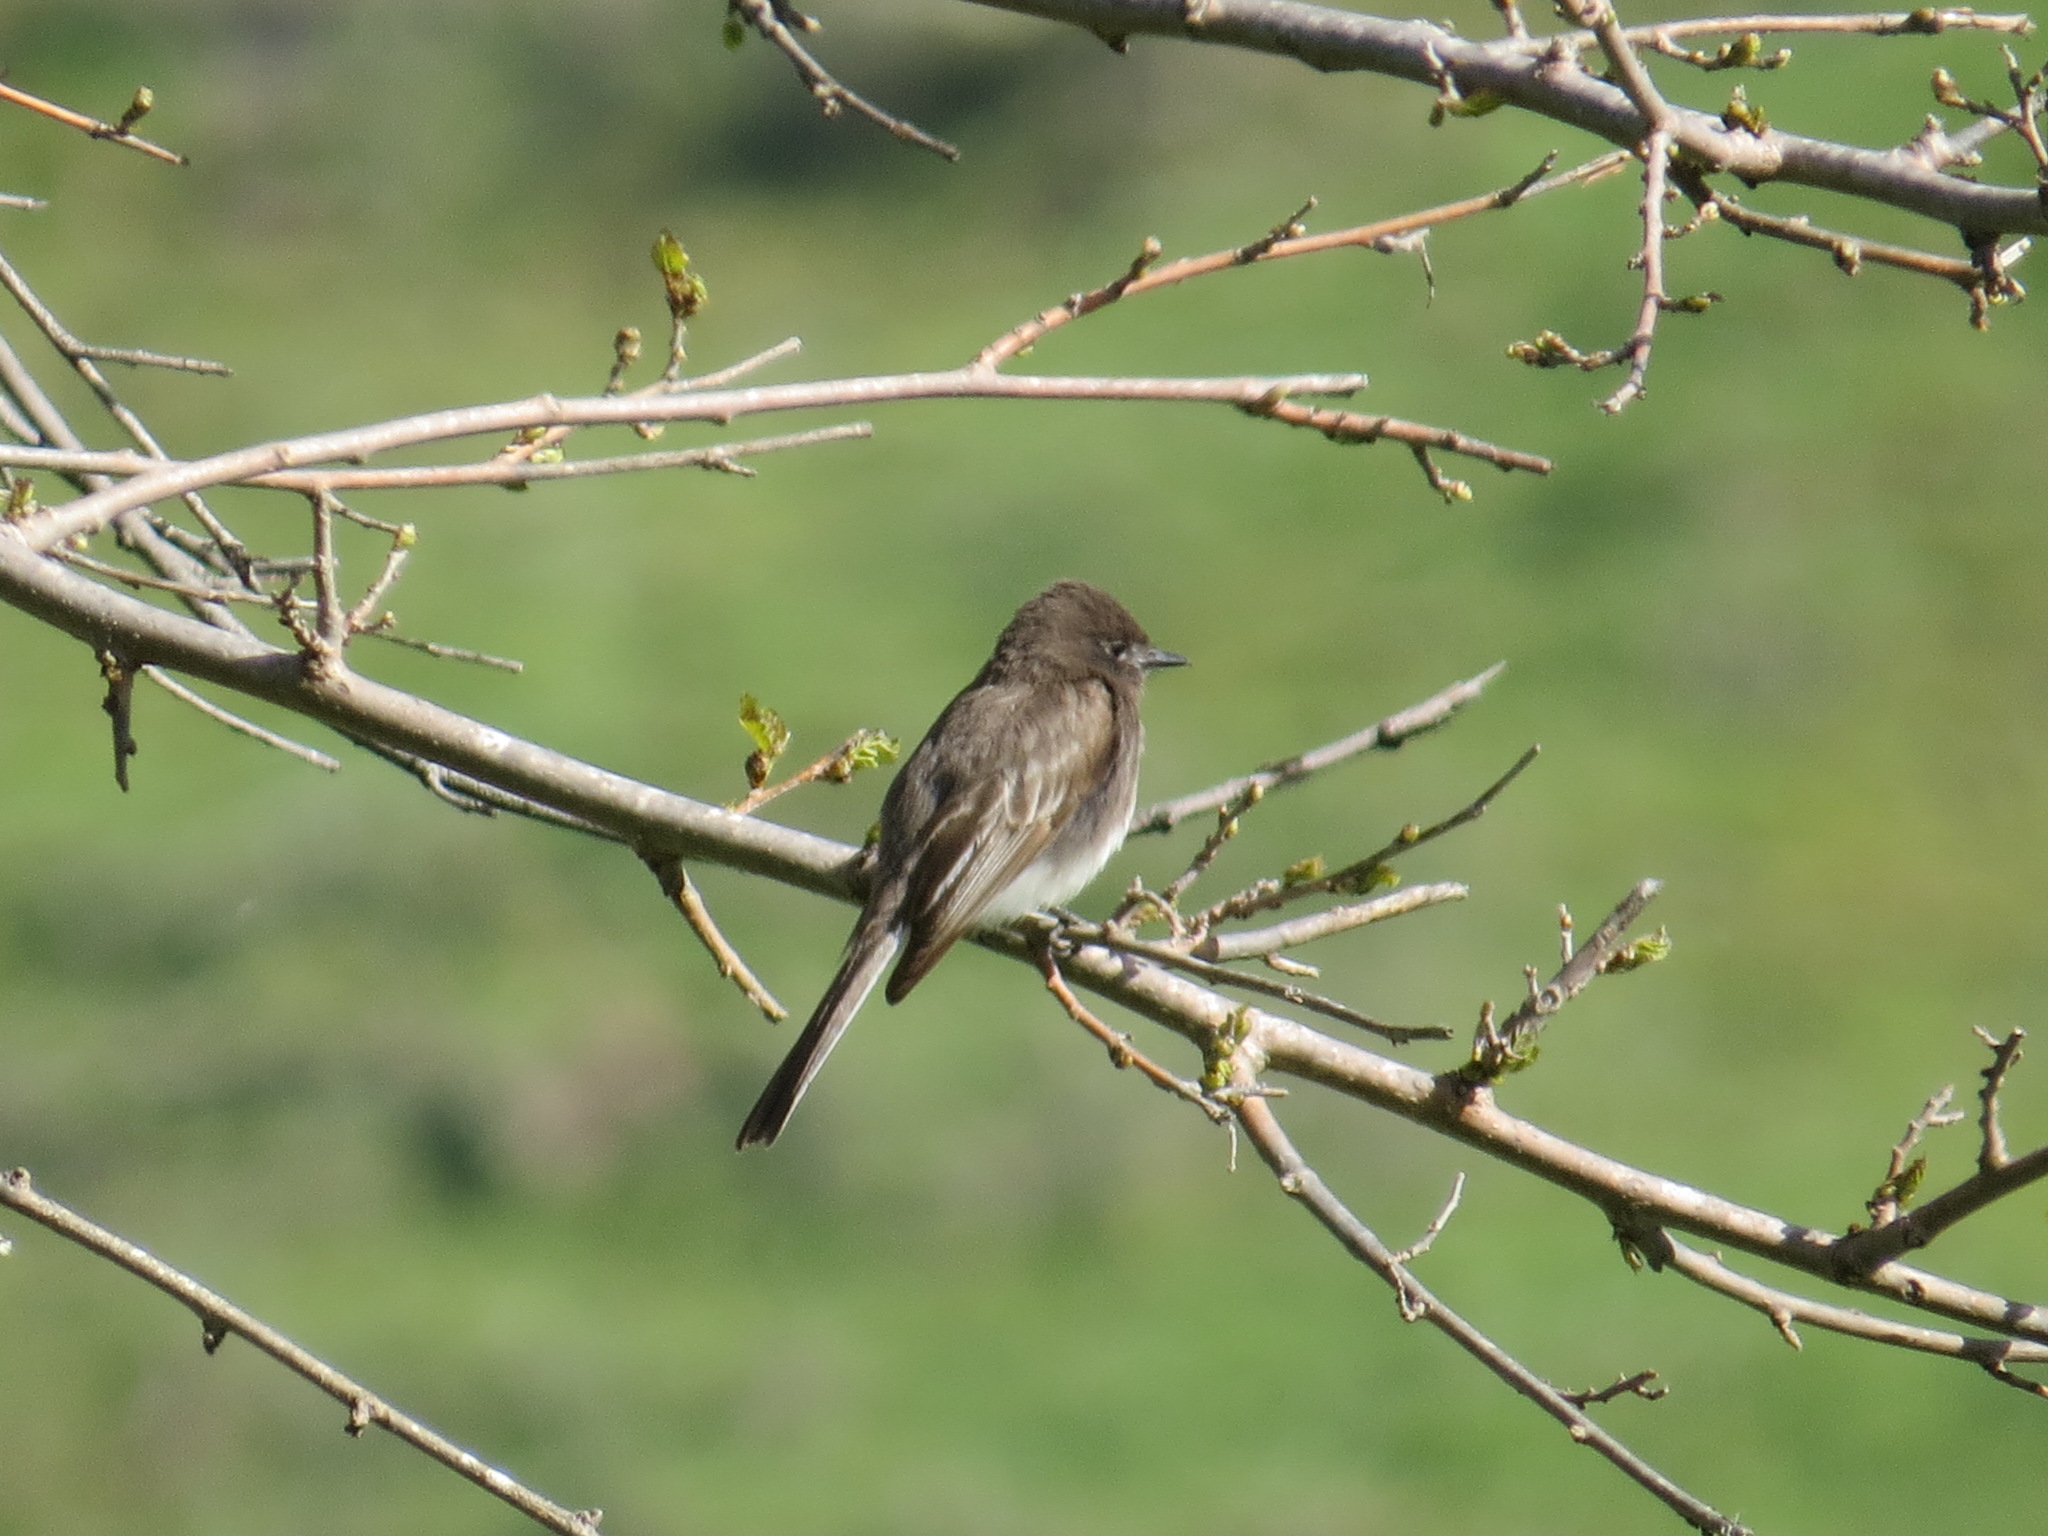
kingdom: Animalia
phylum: Chordata
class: Aves
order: Passeriformes
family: Tyrannidae
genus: Sayornis
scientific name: Sayornis nigricans
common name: Black phoebe
